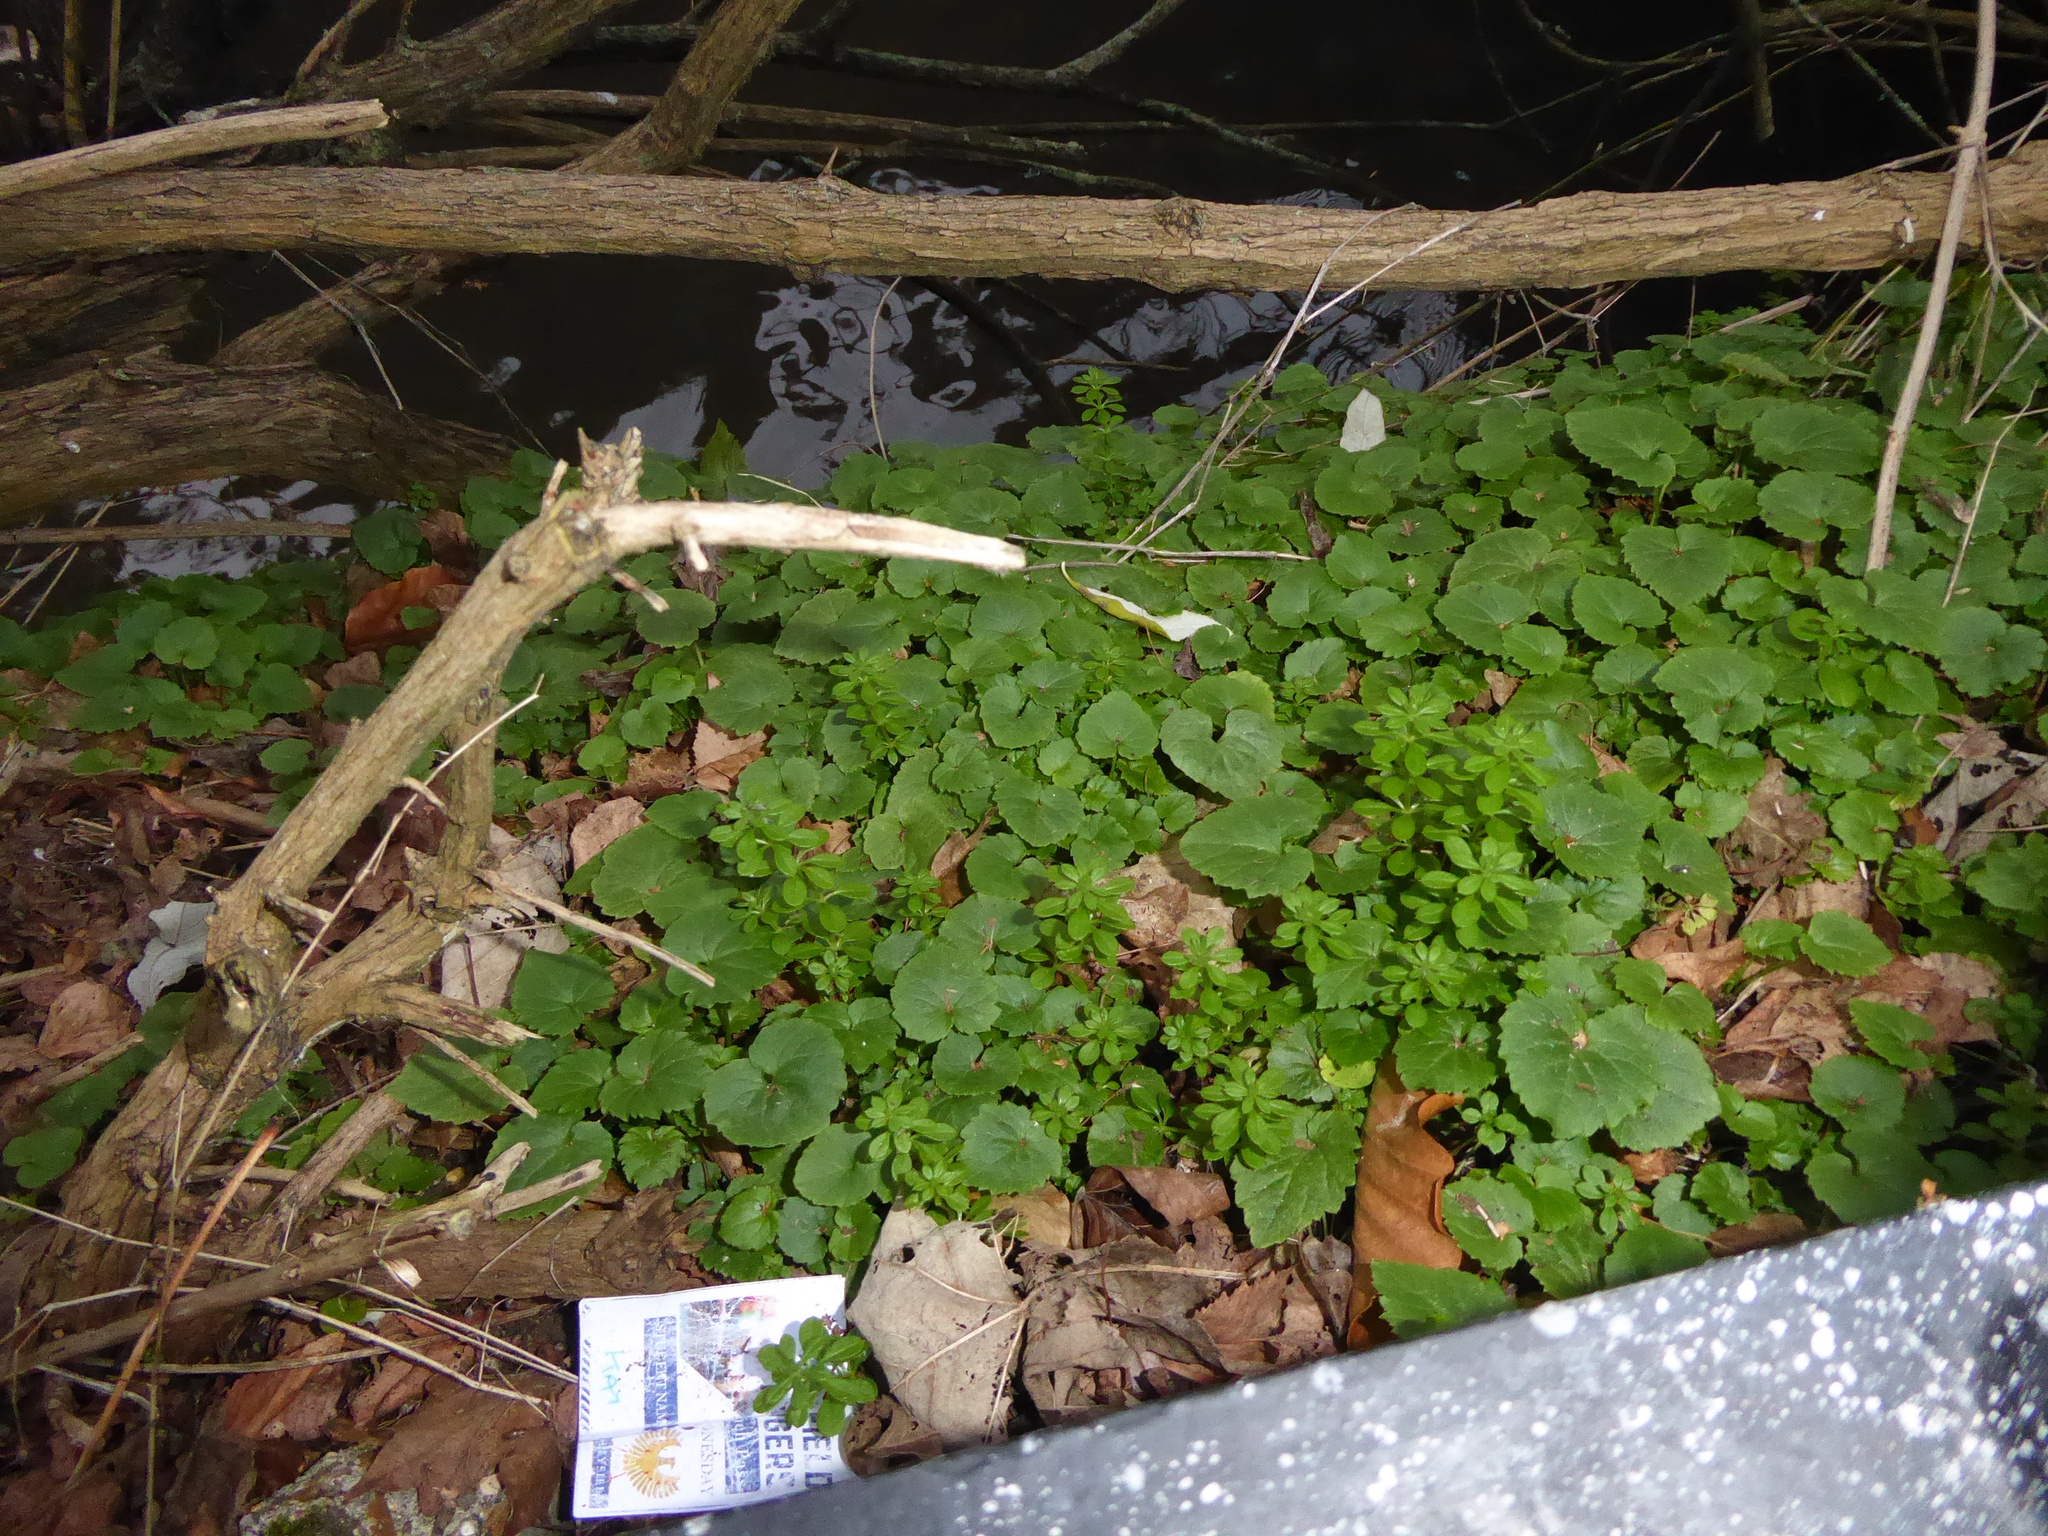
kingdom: Plantae
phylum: Tracheophyta
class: Magnoliopsida
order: Asterales
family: Campanulaceae
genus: Campanula
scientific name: Campanula poscharskyana
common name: Trailing bellflower
